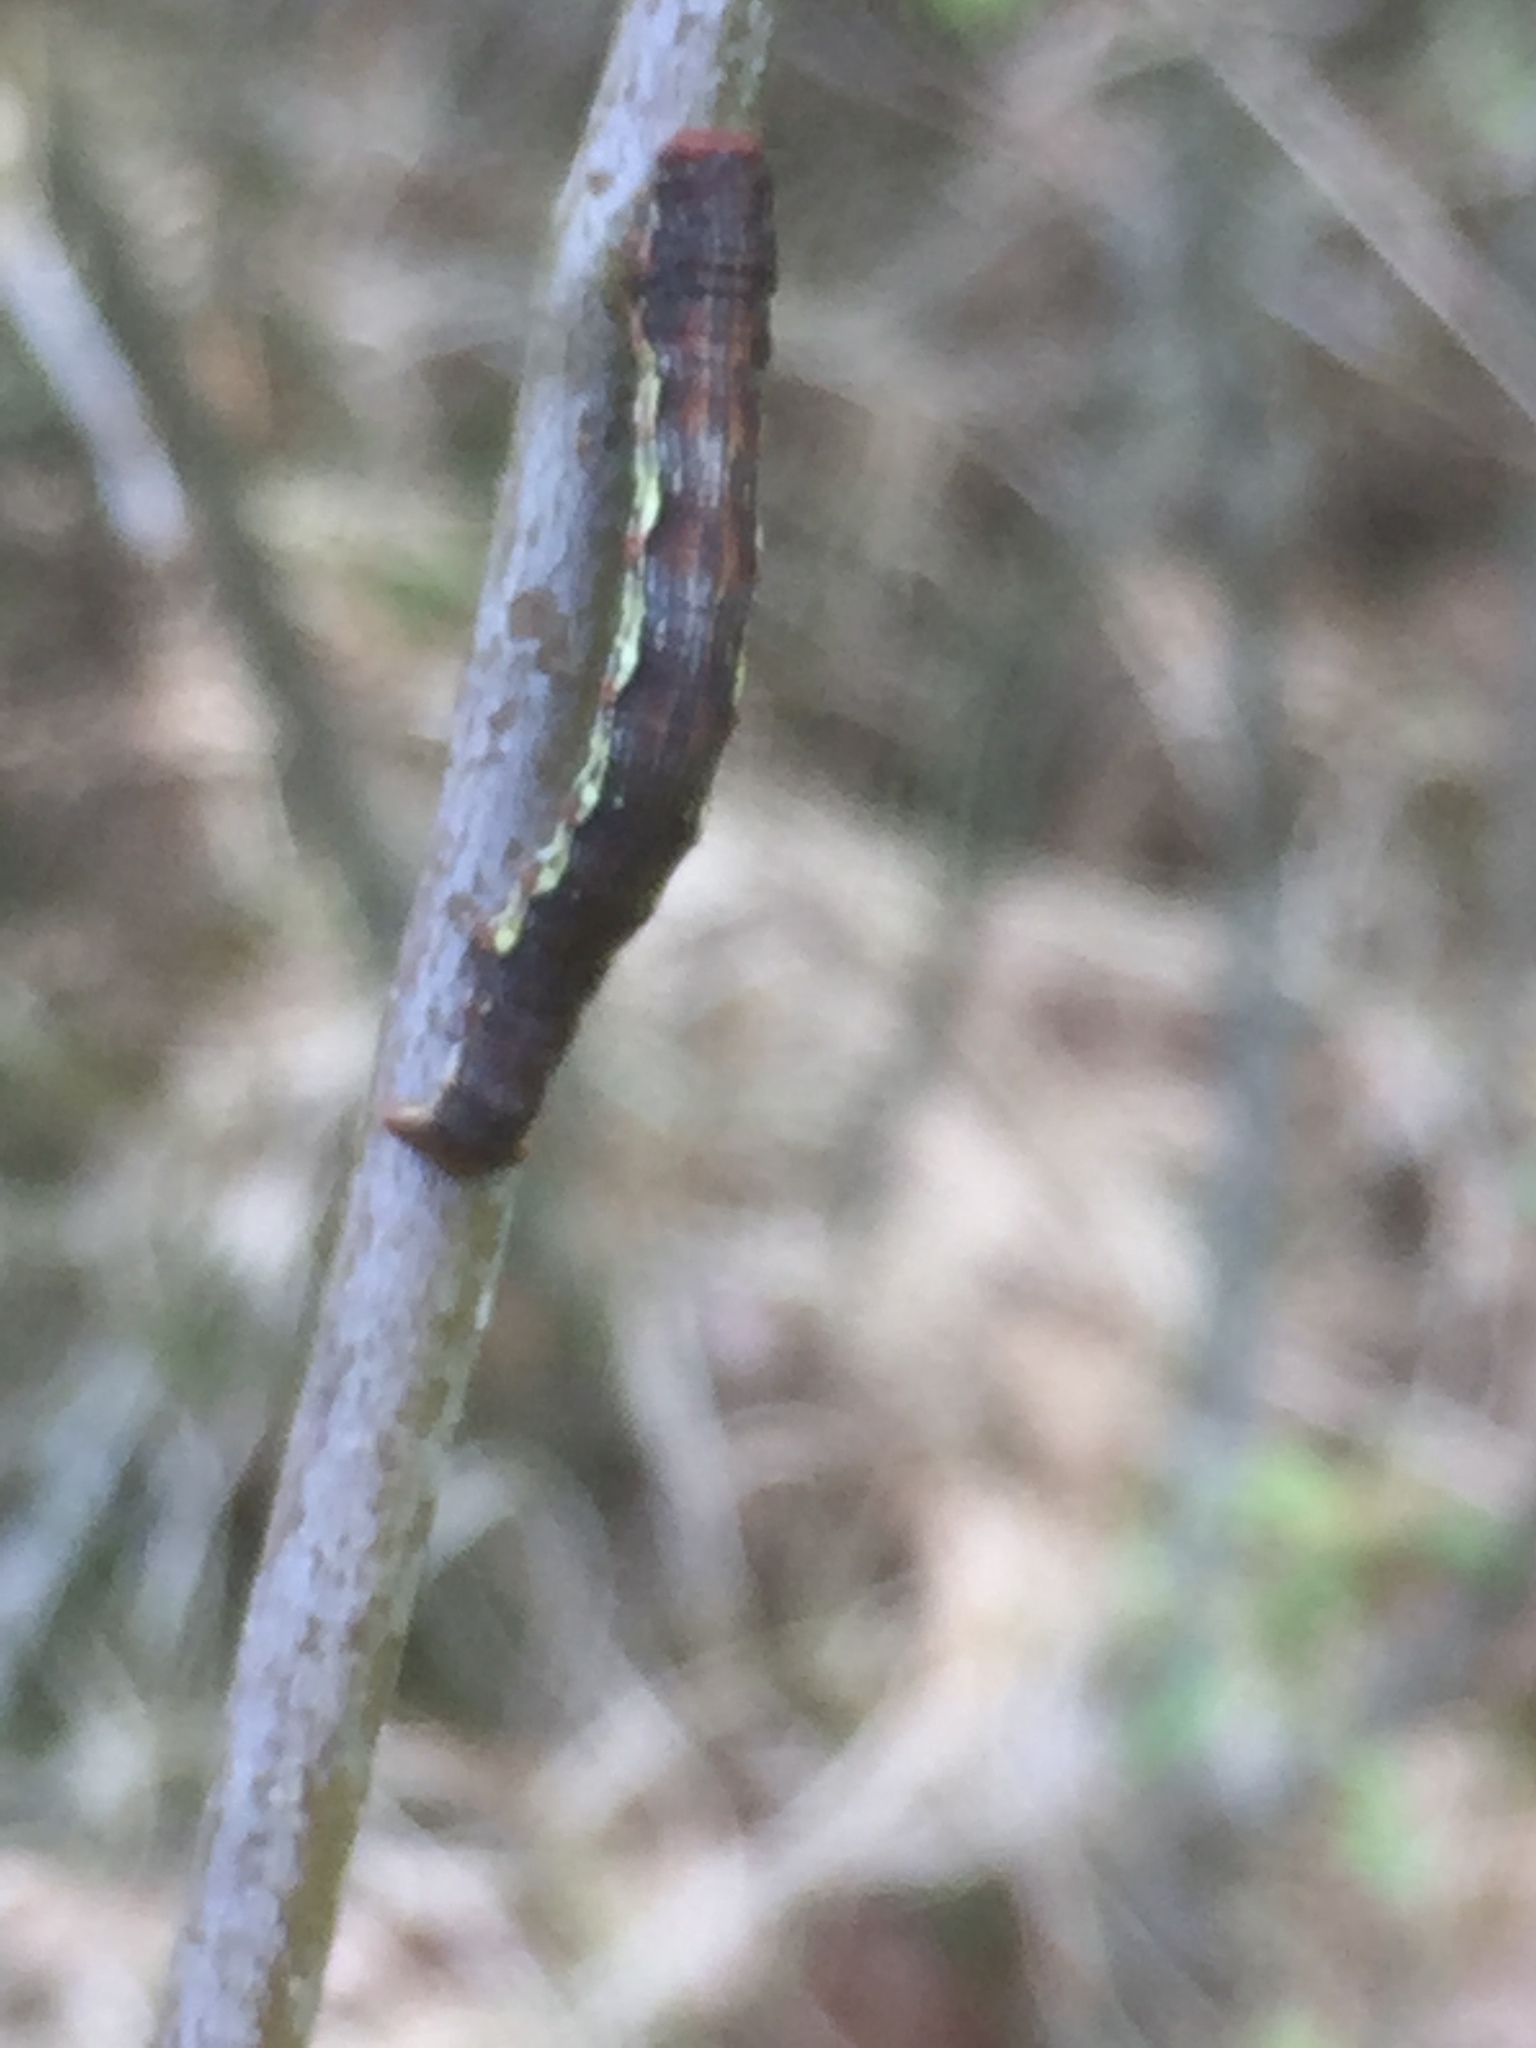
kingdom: Animalia
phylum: Arthropoda
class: Insecta
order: Lepidoptera
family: Geometridae
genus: Erannis
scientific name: Erannis defoliaria
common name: Mottled umber
